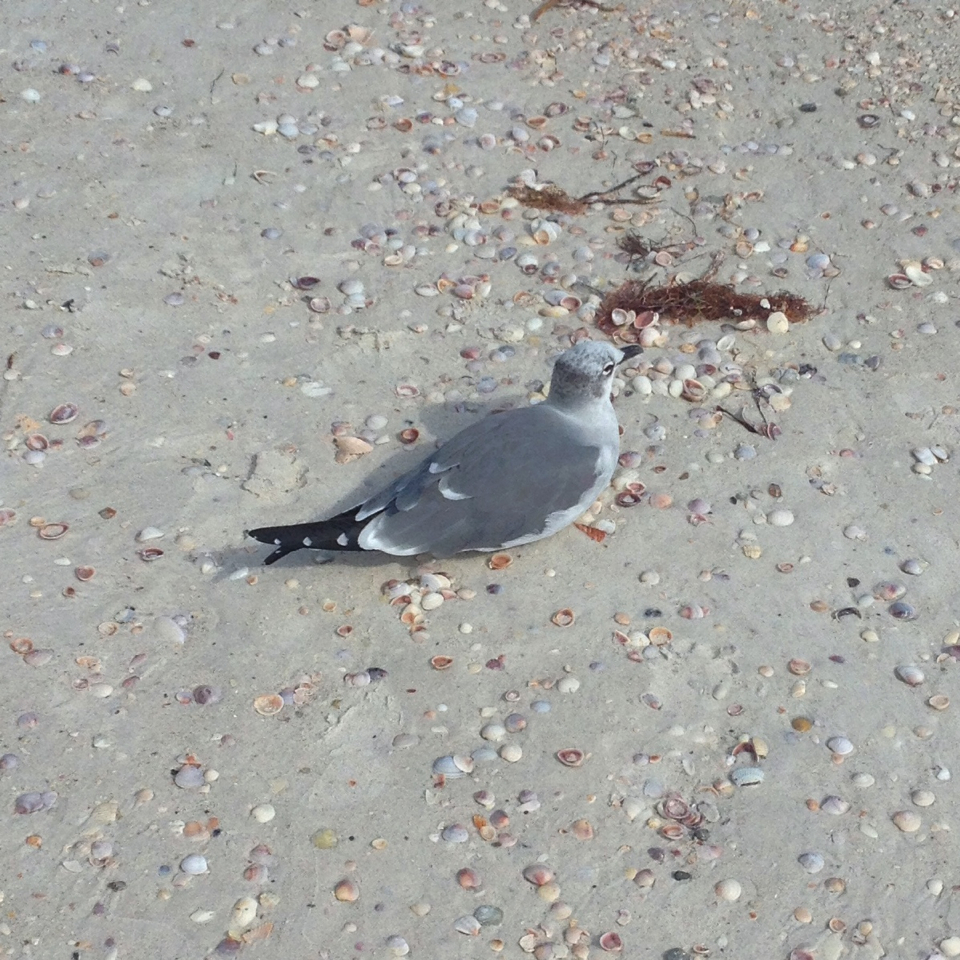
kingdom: Animalia
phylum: Chordata
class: Aves
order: Charadriiformes
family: Laridae
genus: Leucophaeus
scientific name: Leucophaeus atricilla
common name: Laughing gull
